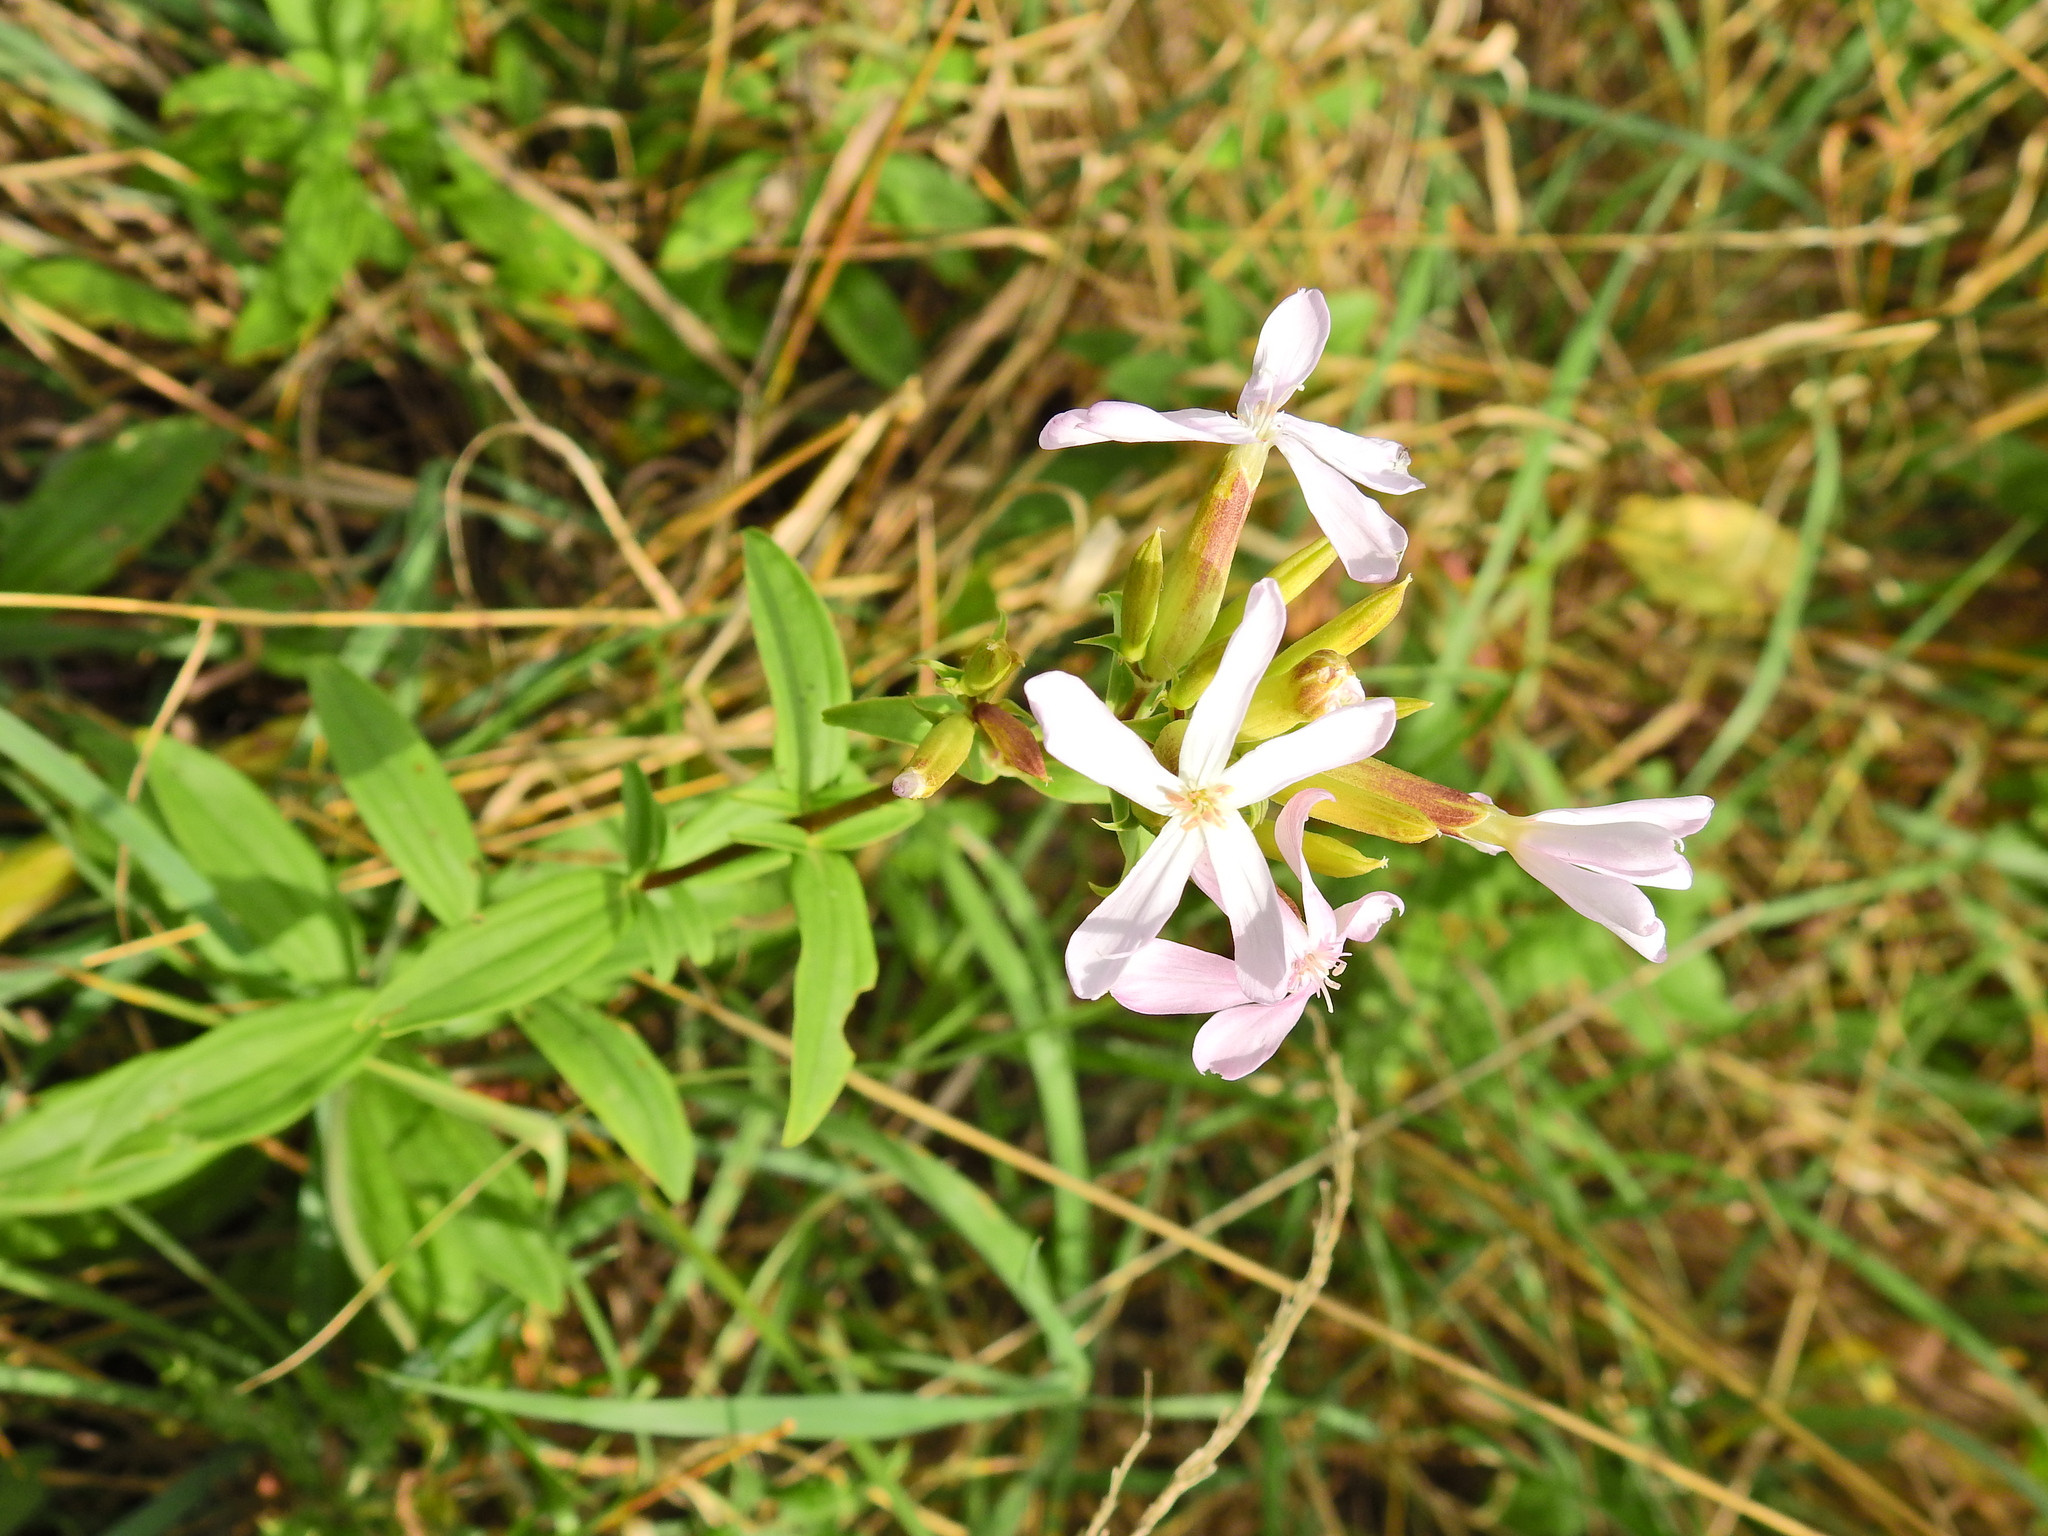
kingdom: Plantae
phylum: Tracheophyta
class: Magnoliopsida
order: Caryophyllales
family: Caryophyllaceae
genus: Saponaria
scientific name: Saponaria officinalis
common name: Soapwort
